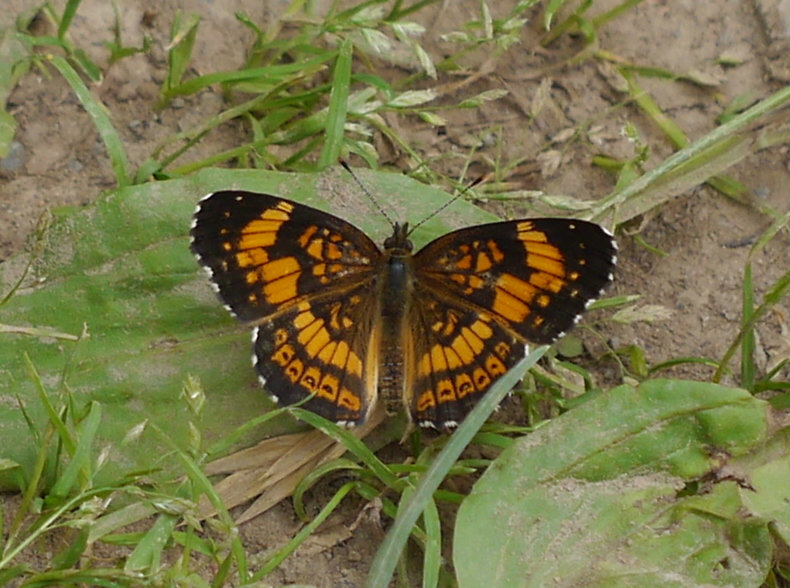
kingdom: Animalia
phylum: Arthropoda
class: Insecta
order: Lepidoptera
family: Nymphalidae
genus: Chlosyne
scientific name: Chlosyne nycteis
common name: Silvery checkerspot
